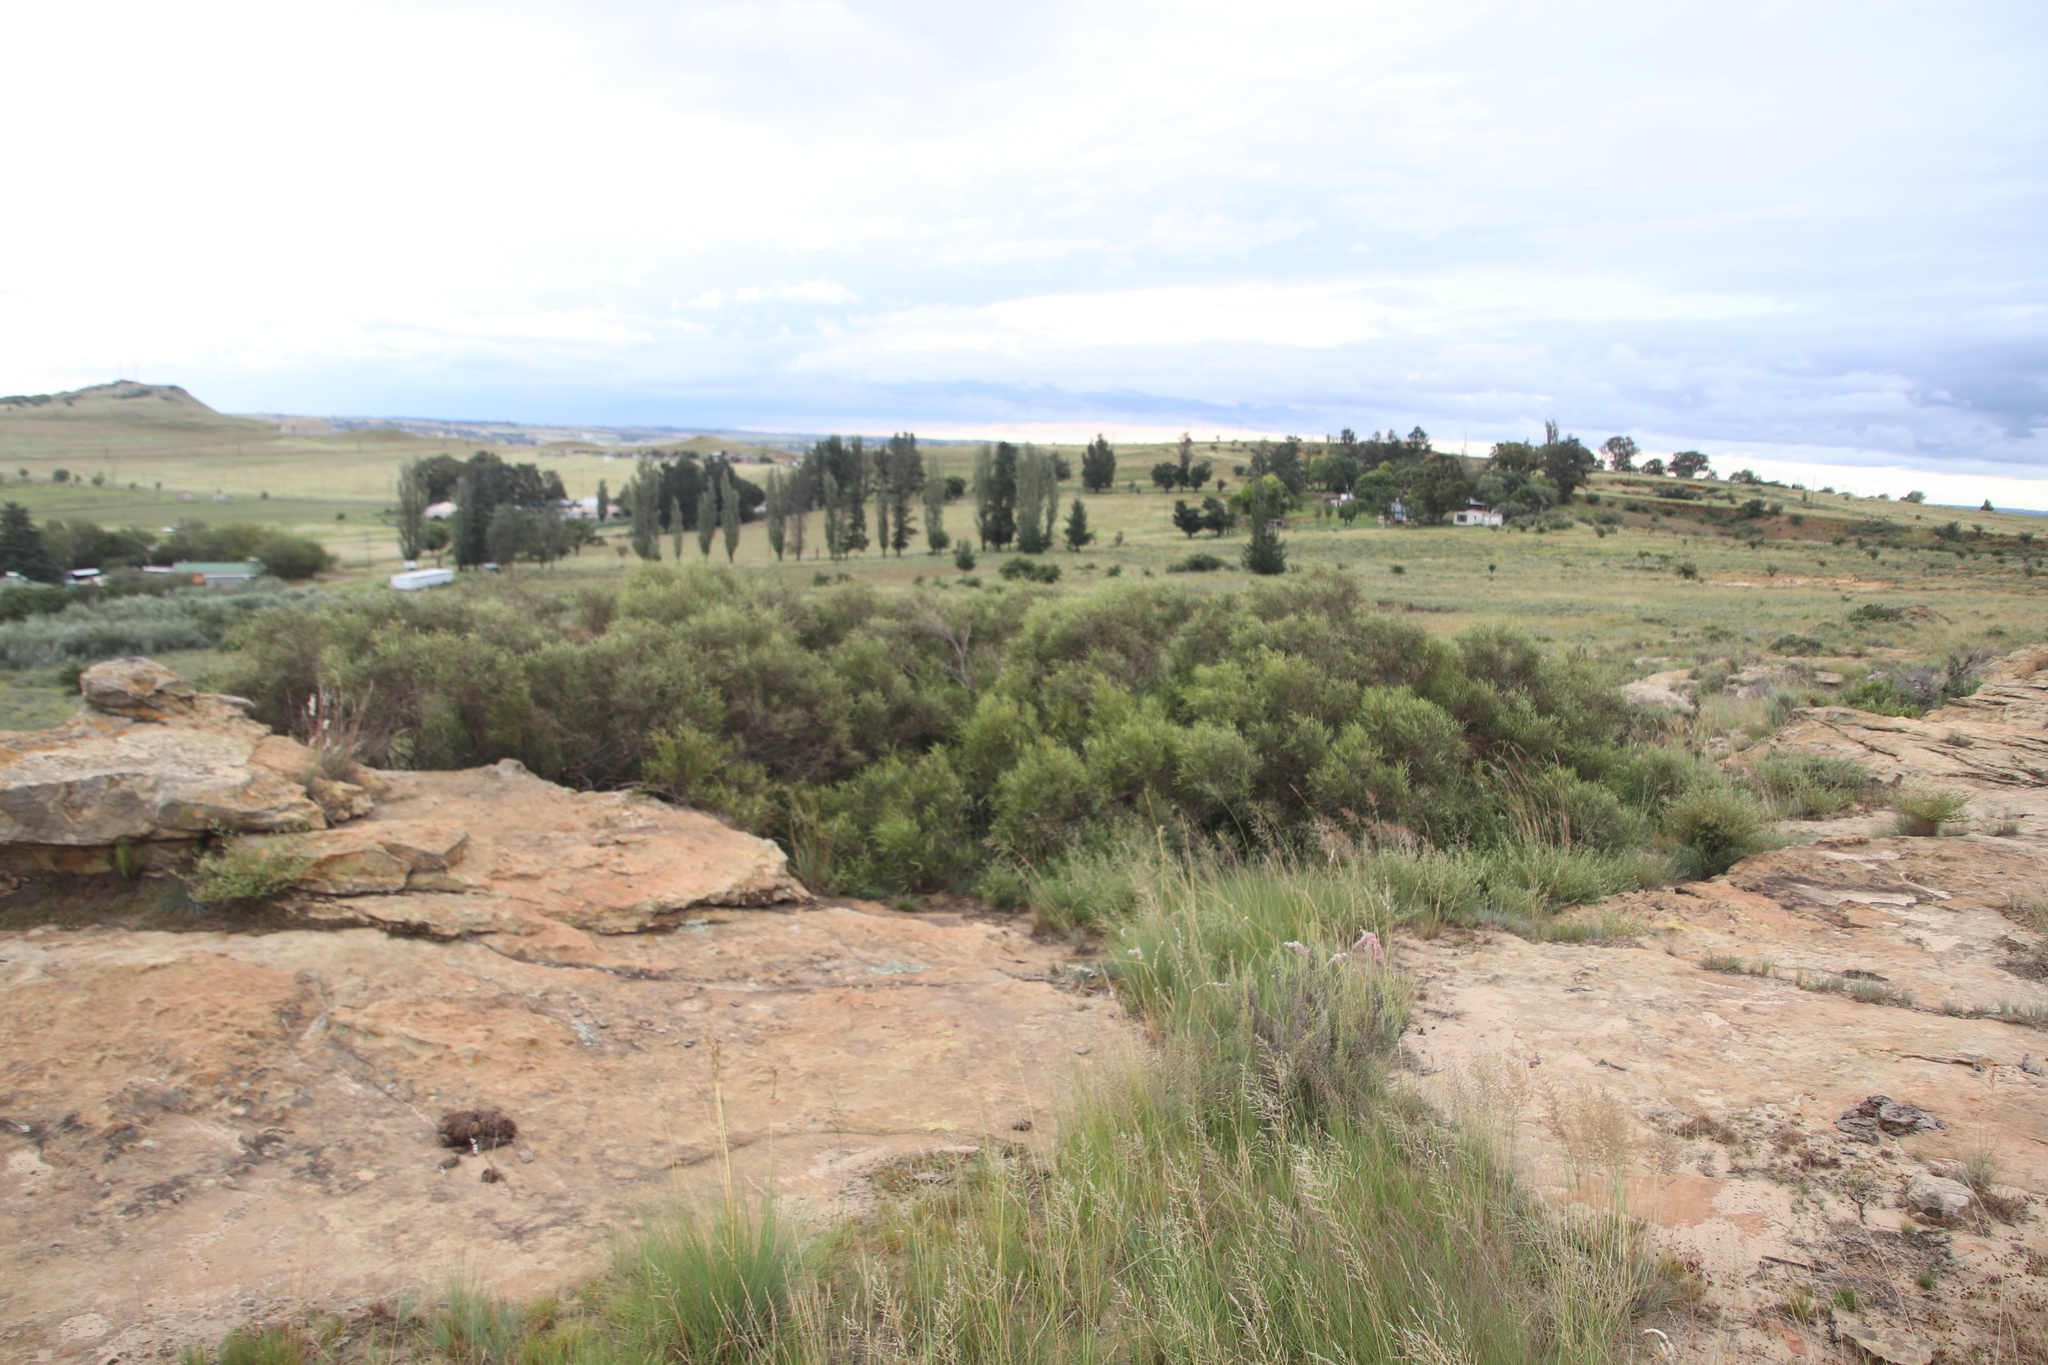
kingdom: Plantae
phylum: Tracheophyta
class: Magnoliopsida
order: Sapindales
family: Anacardiaceae
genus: Searsia
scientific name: Searsia erosa
